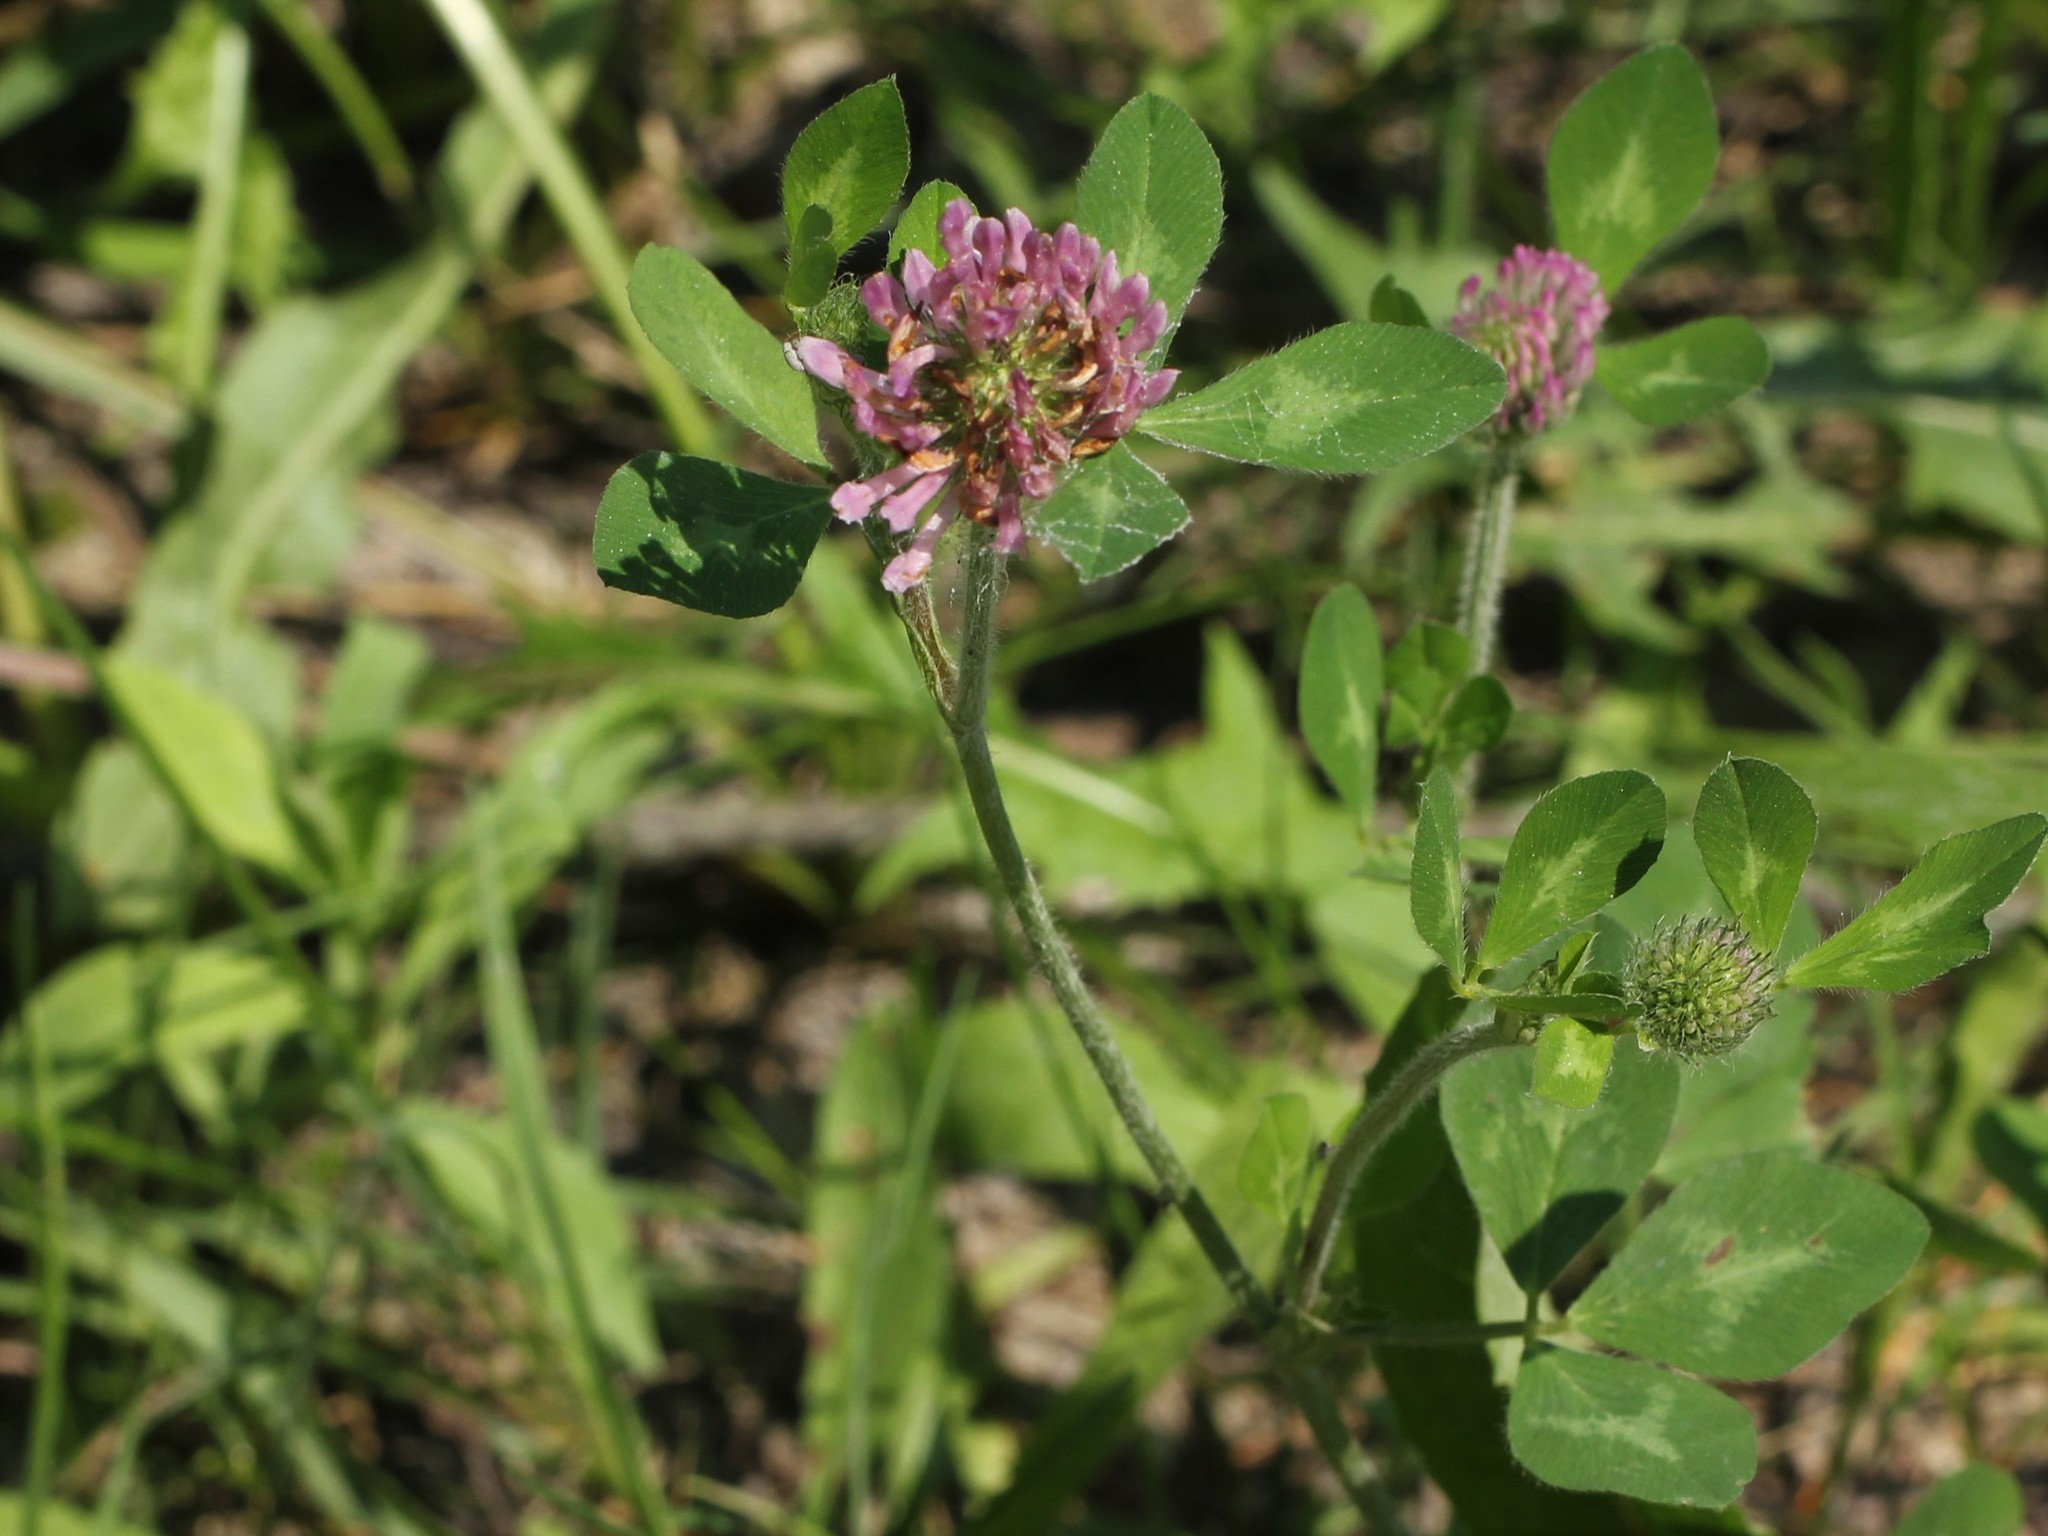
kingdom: Plantae
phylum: Tracheophyta
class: Magnoliopsida
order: Fabales
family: Fabaceae
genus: Trifolium
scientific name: Trifolium pratense
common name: Red clover
